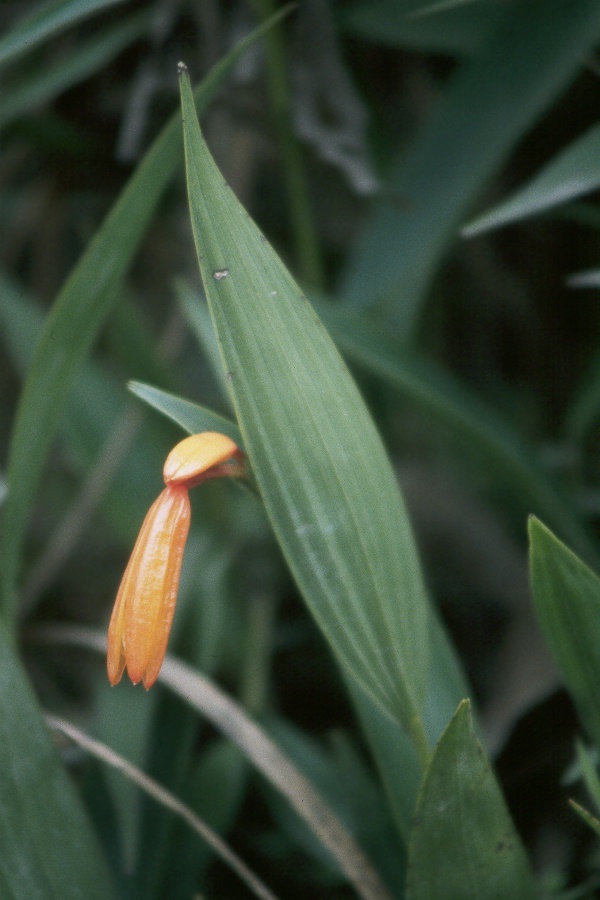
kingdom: Plantae
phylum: Tracheophyta
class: Liliopsida
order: Asparagales
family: Orchidaceae
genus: Sobralia
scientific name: Sobralia crocea
